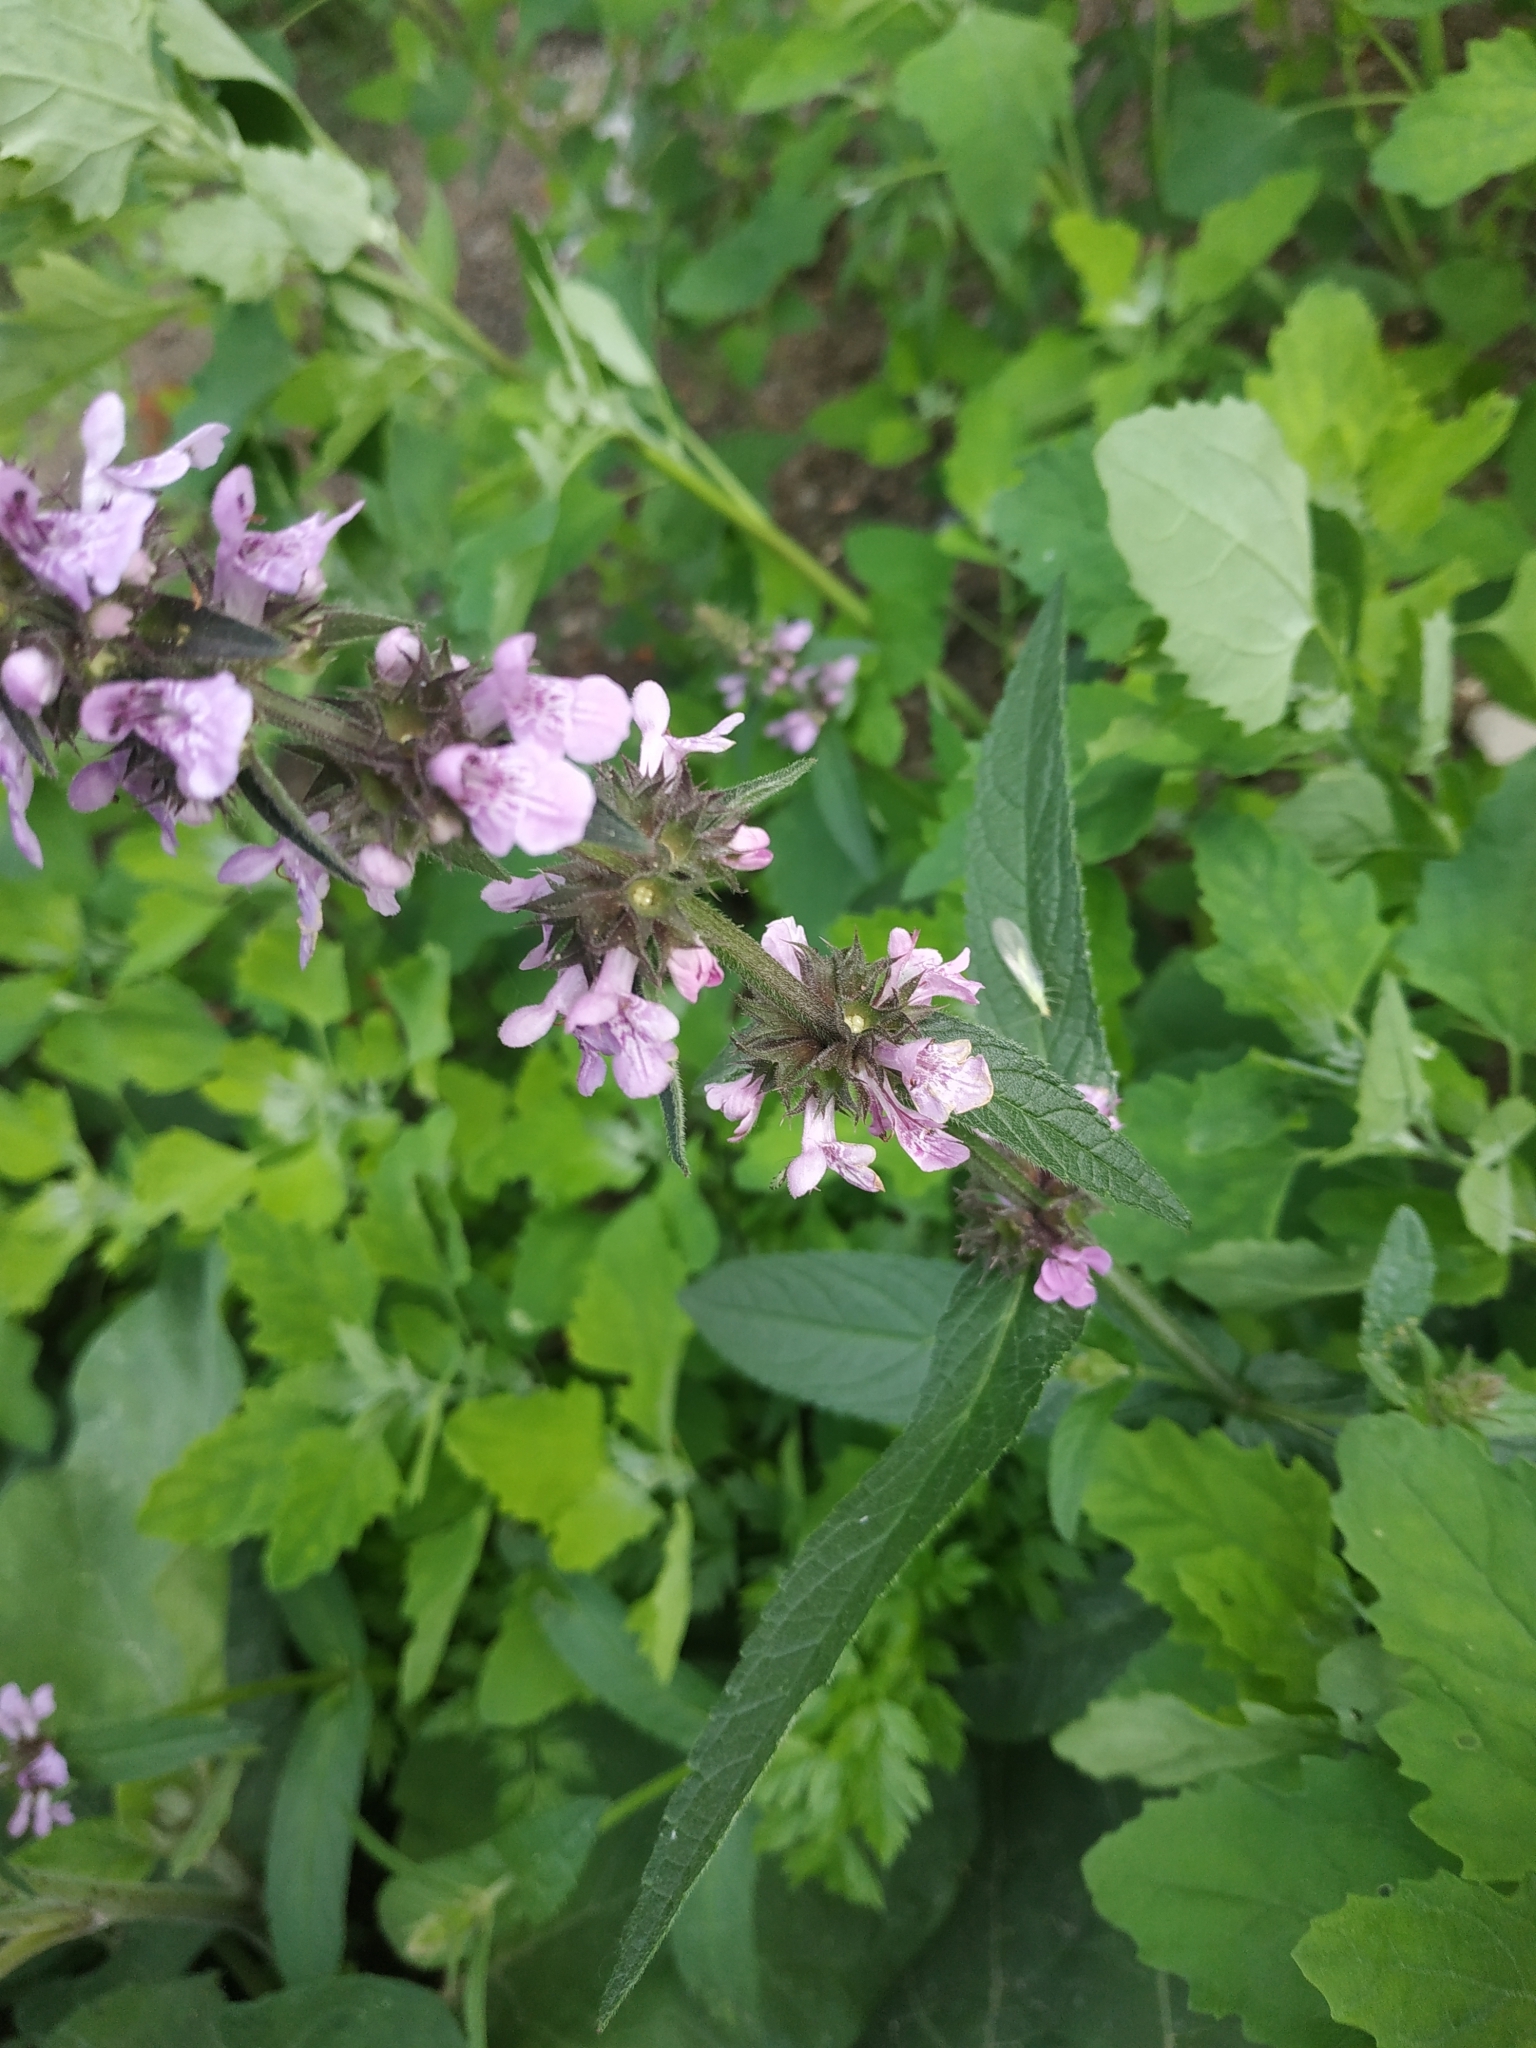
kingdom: Plantae
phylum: Tracheophyta
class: Magnoliopsida
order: Lamiales
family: Lamiaceae
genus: Stachys
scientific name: Stachys palustris
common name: Marsh woundwort
